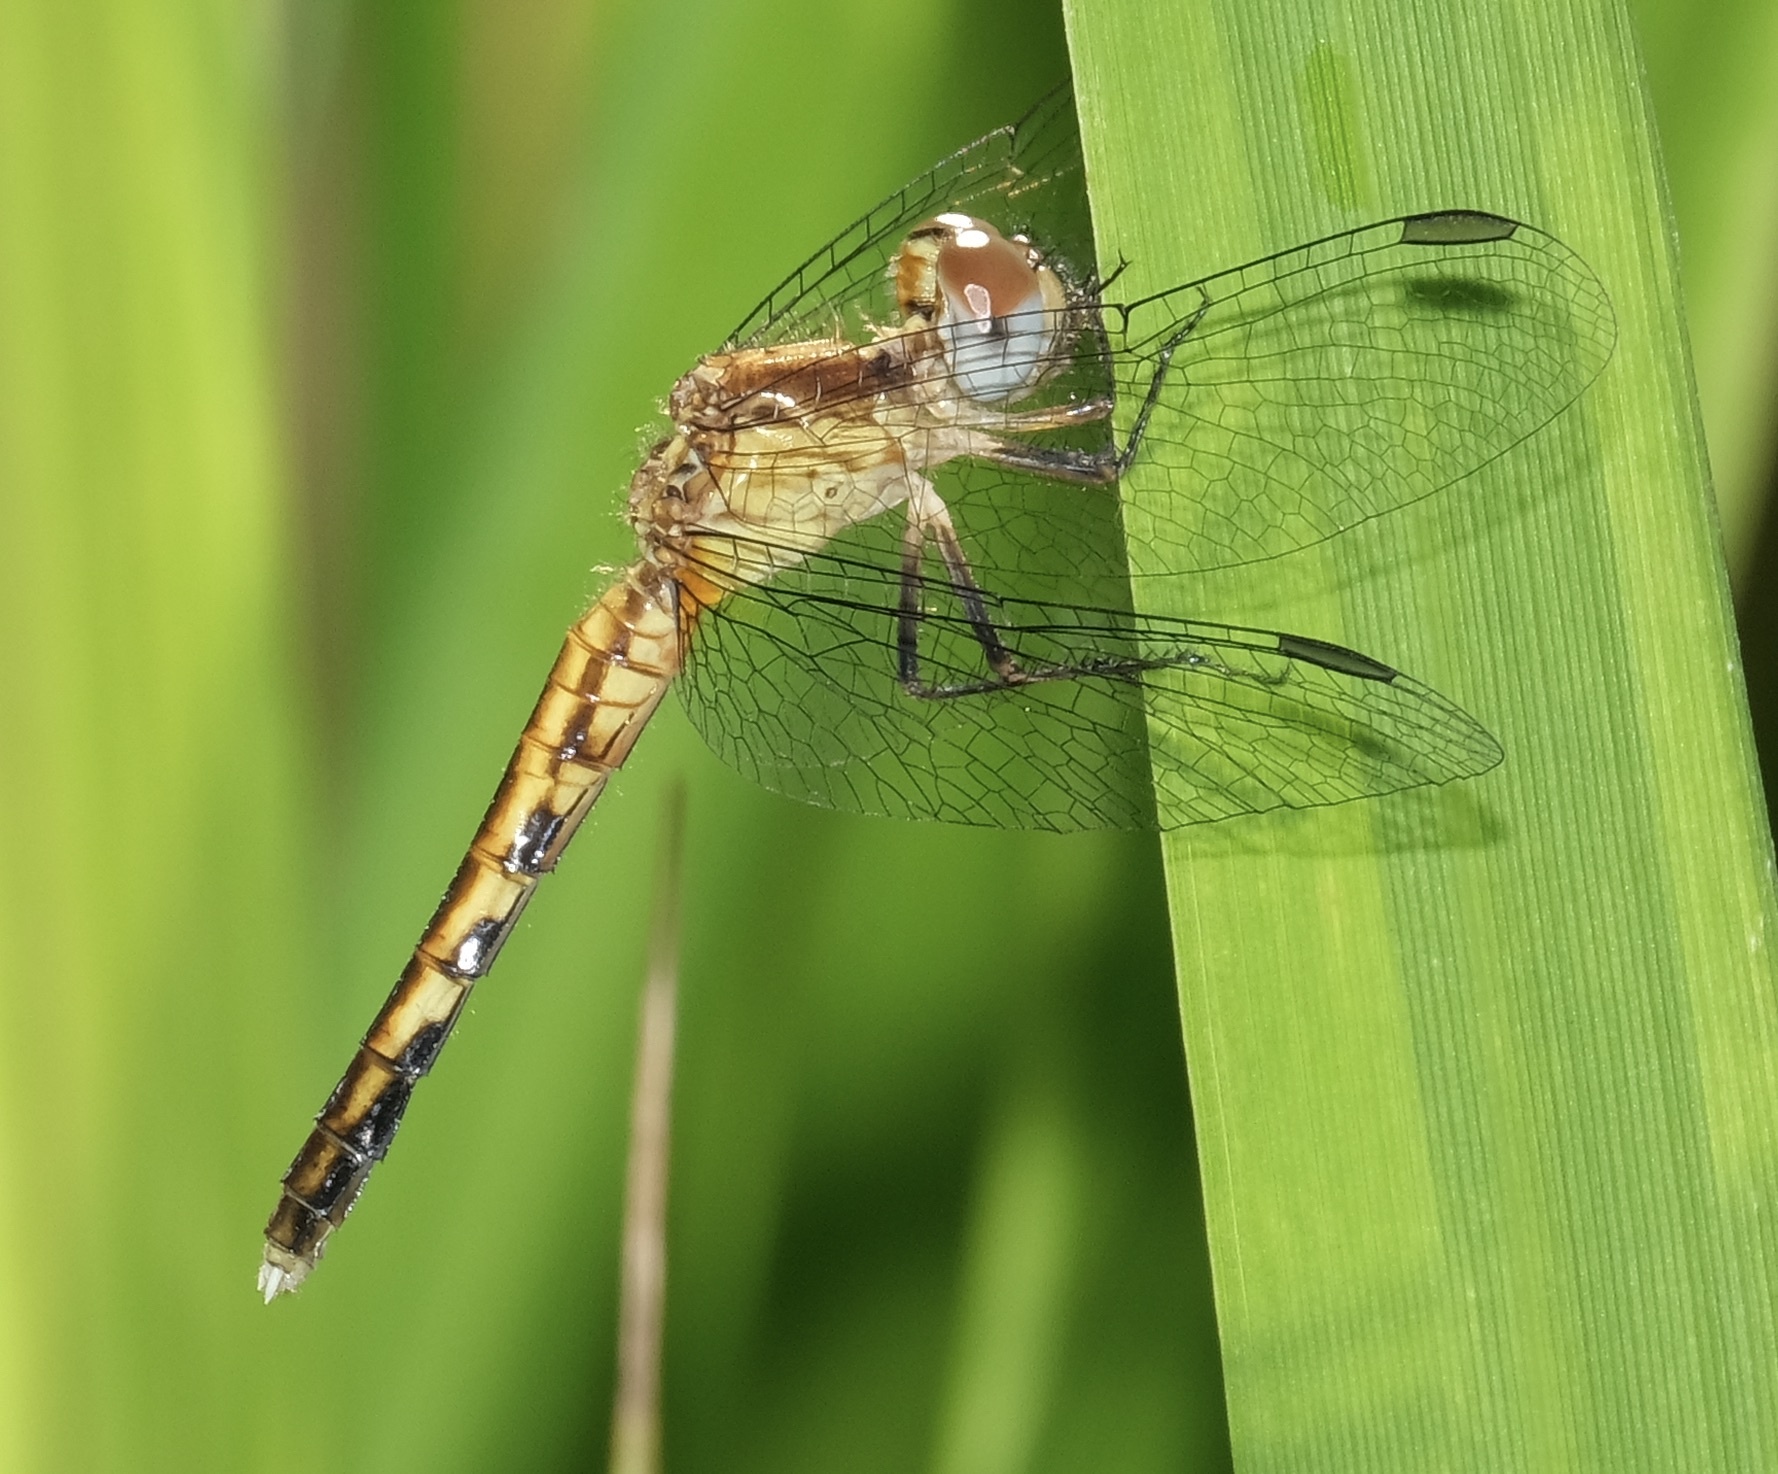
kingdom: Animalia
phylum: Arthropoda
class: Insecta
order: Odonata
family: Libellulidae
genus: Erythrodiplax
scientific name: Erythrodiplax minuscula
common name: Little blue dragonlet
